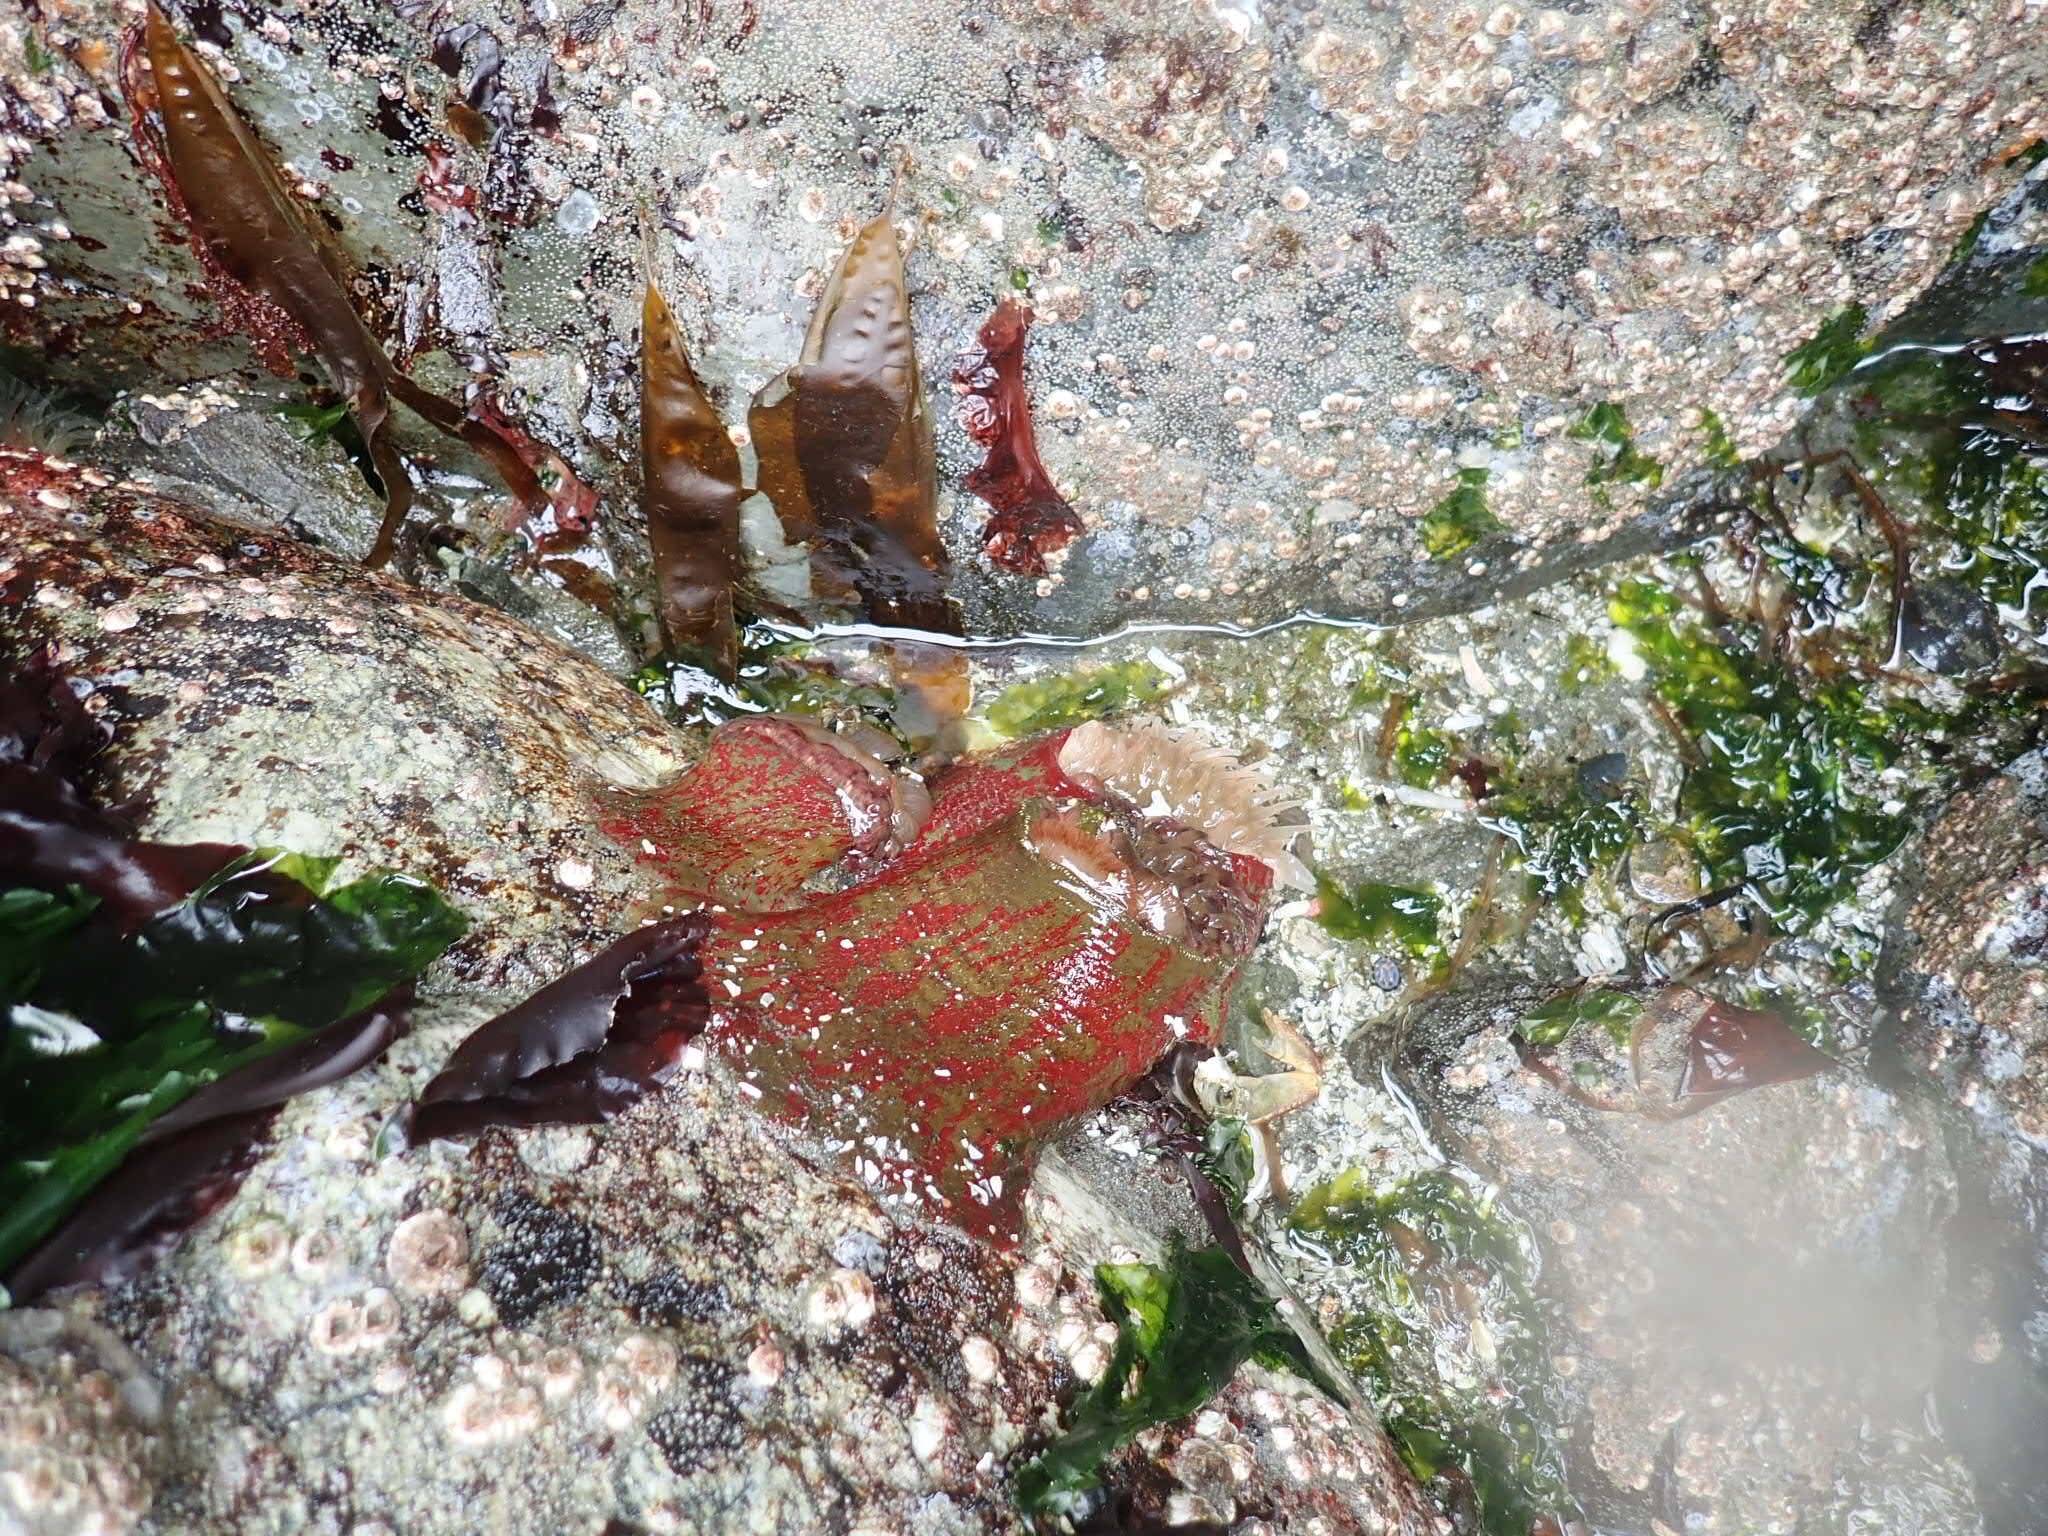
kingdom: Animalia
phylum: Cnidaria
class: Anthozoa
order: Actiniaria
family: Actiniidae
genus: Urticina
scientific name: Urticina grebelnyi
